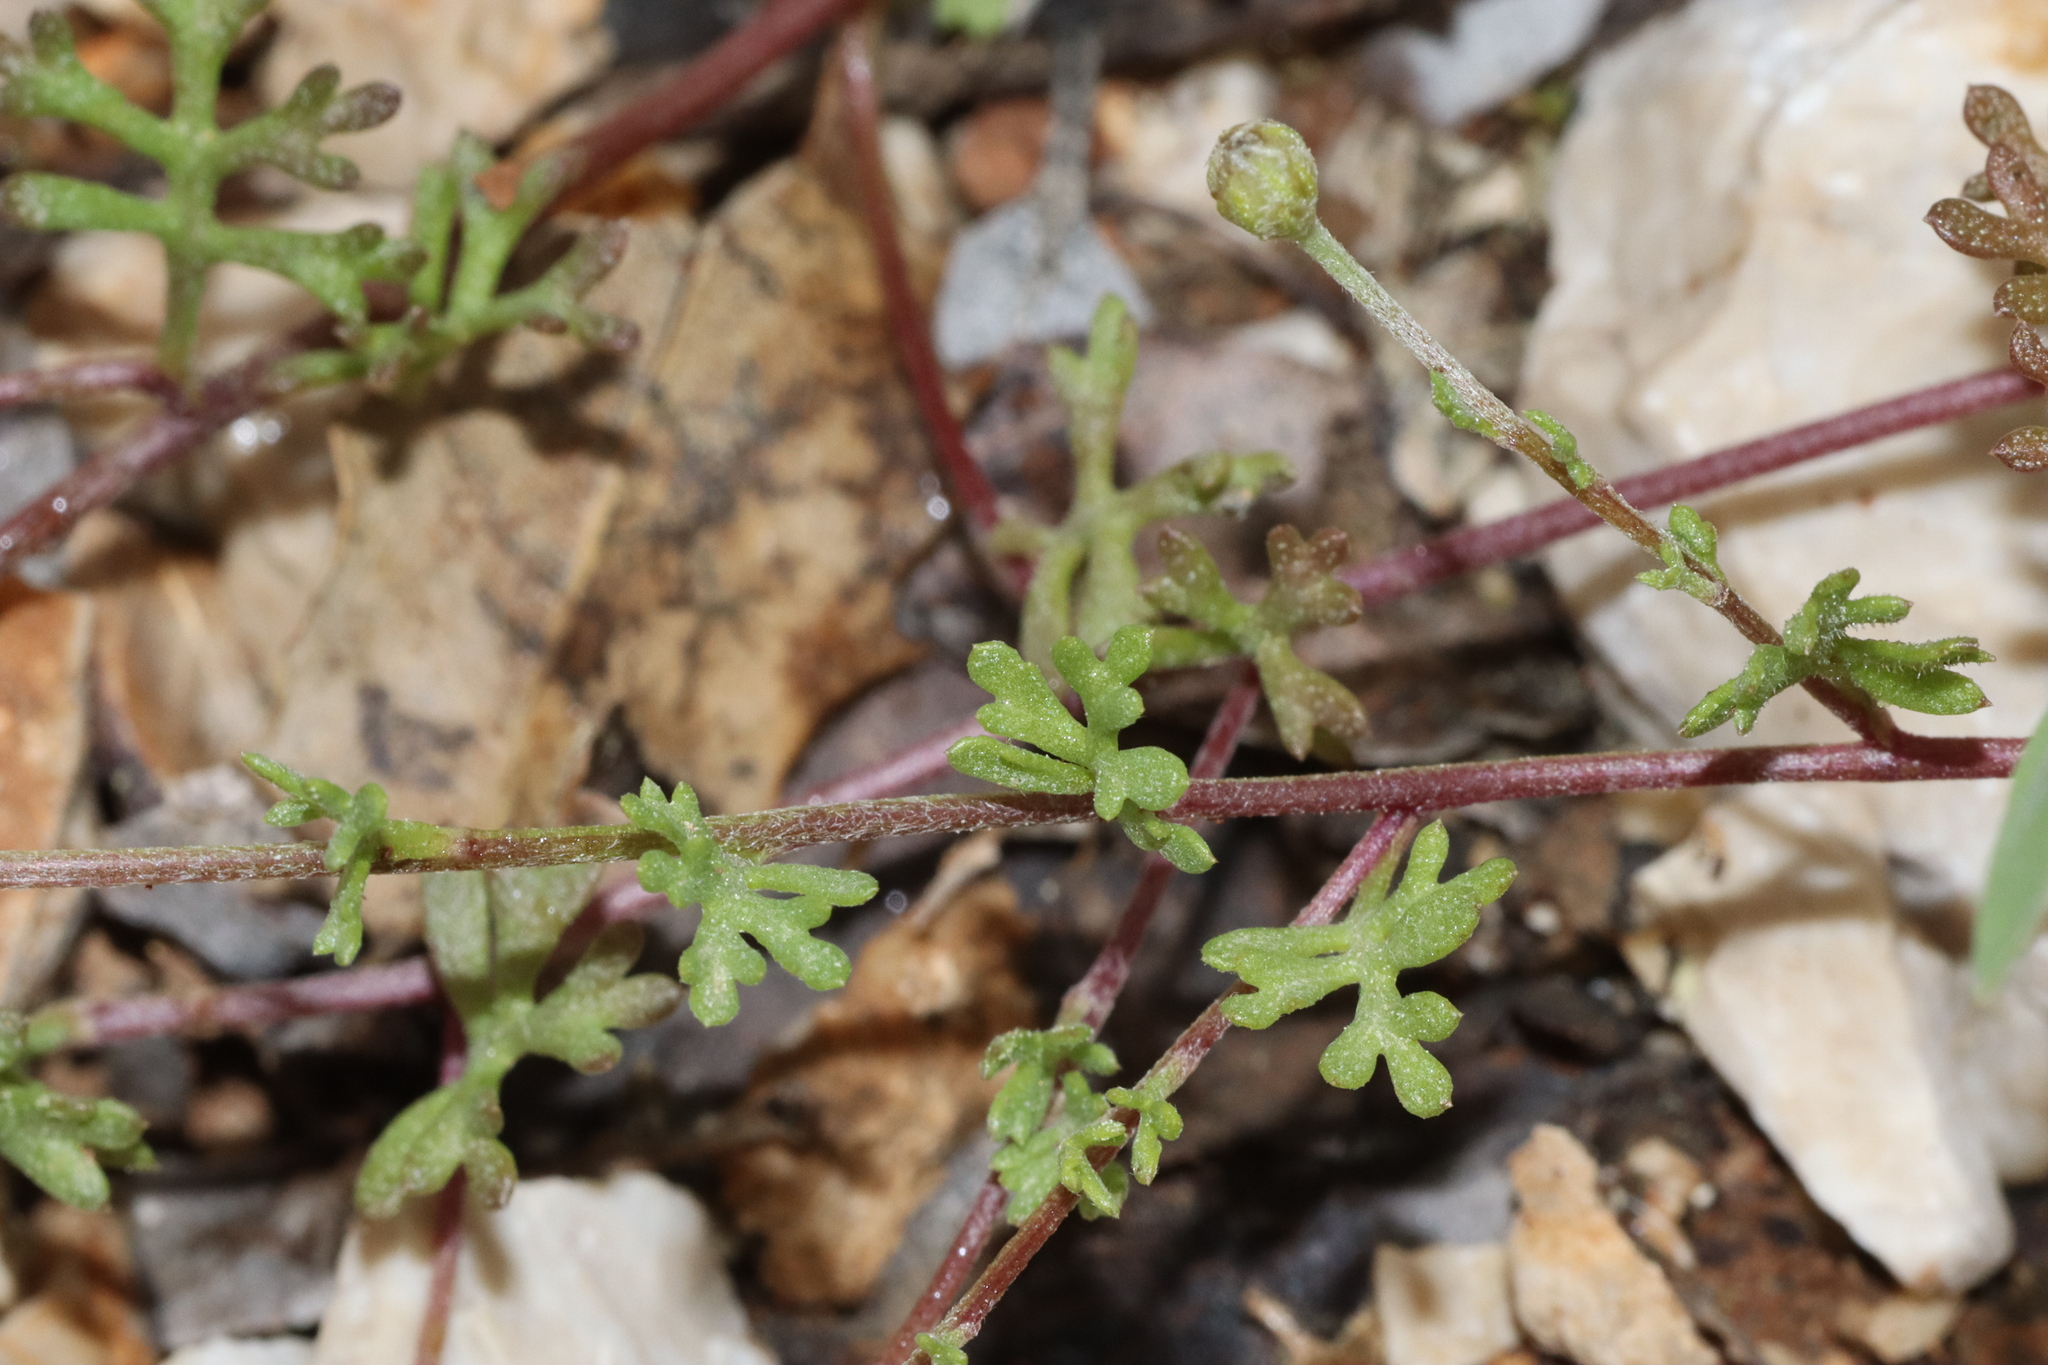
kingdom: Plantae
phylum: Tracheophyta
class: Magnoliopsida
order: Asterales
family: Asteraceae
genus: Anthemis
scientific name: Anthemis rosea
